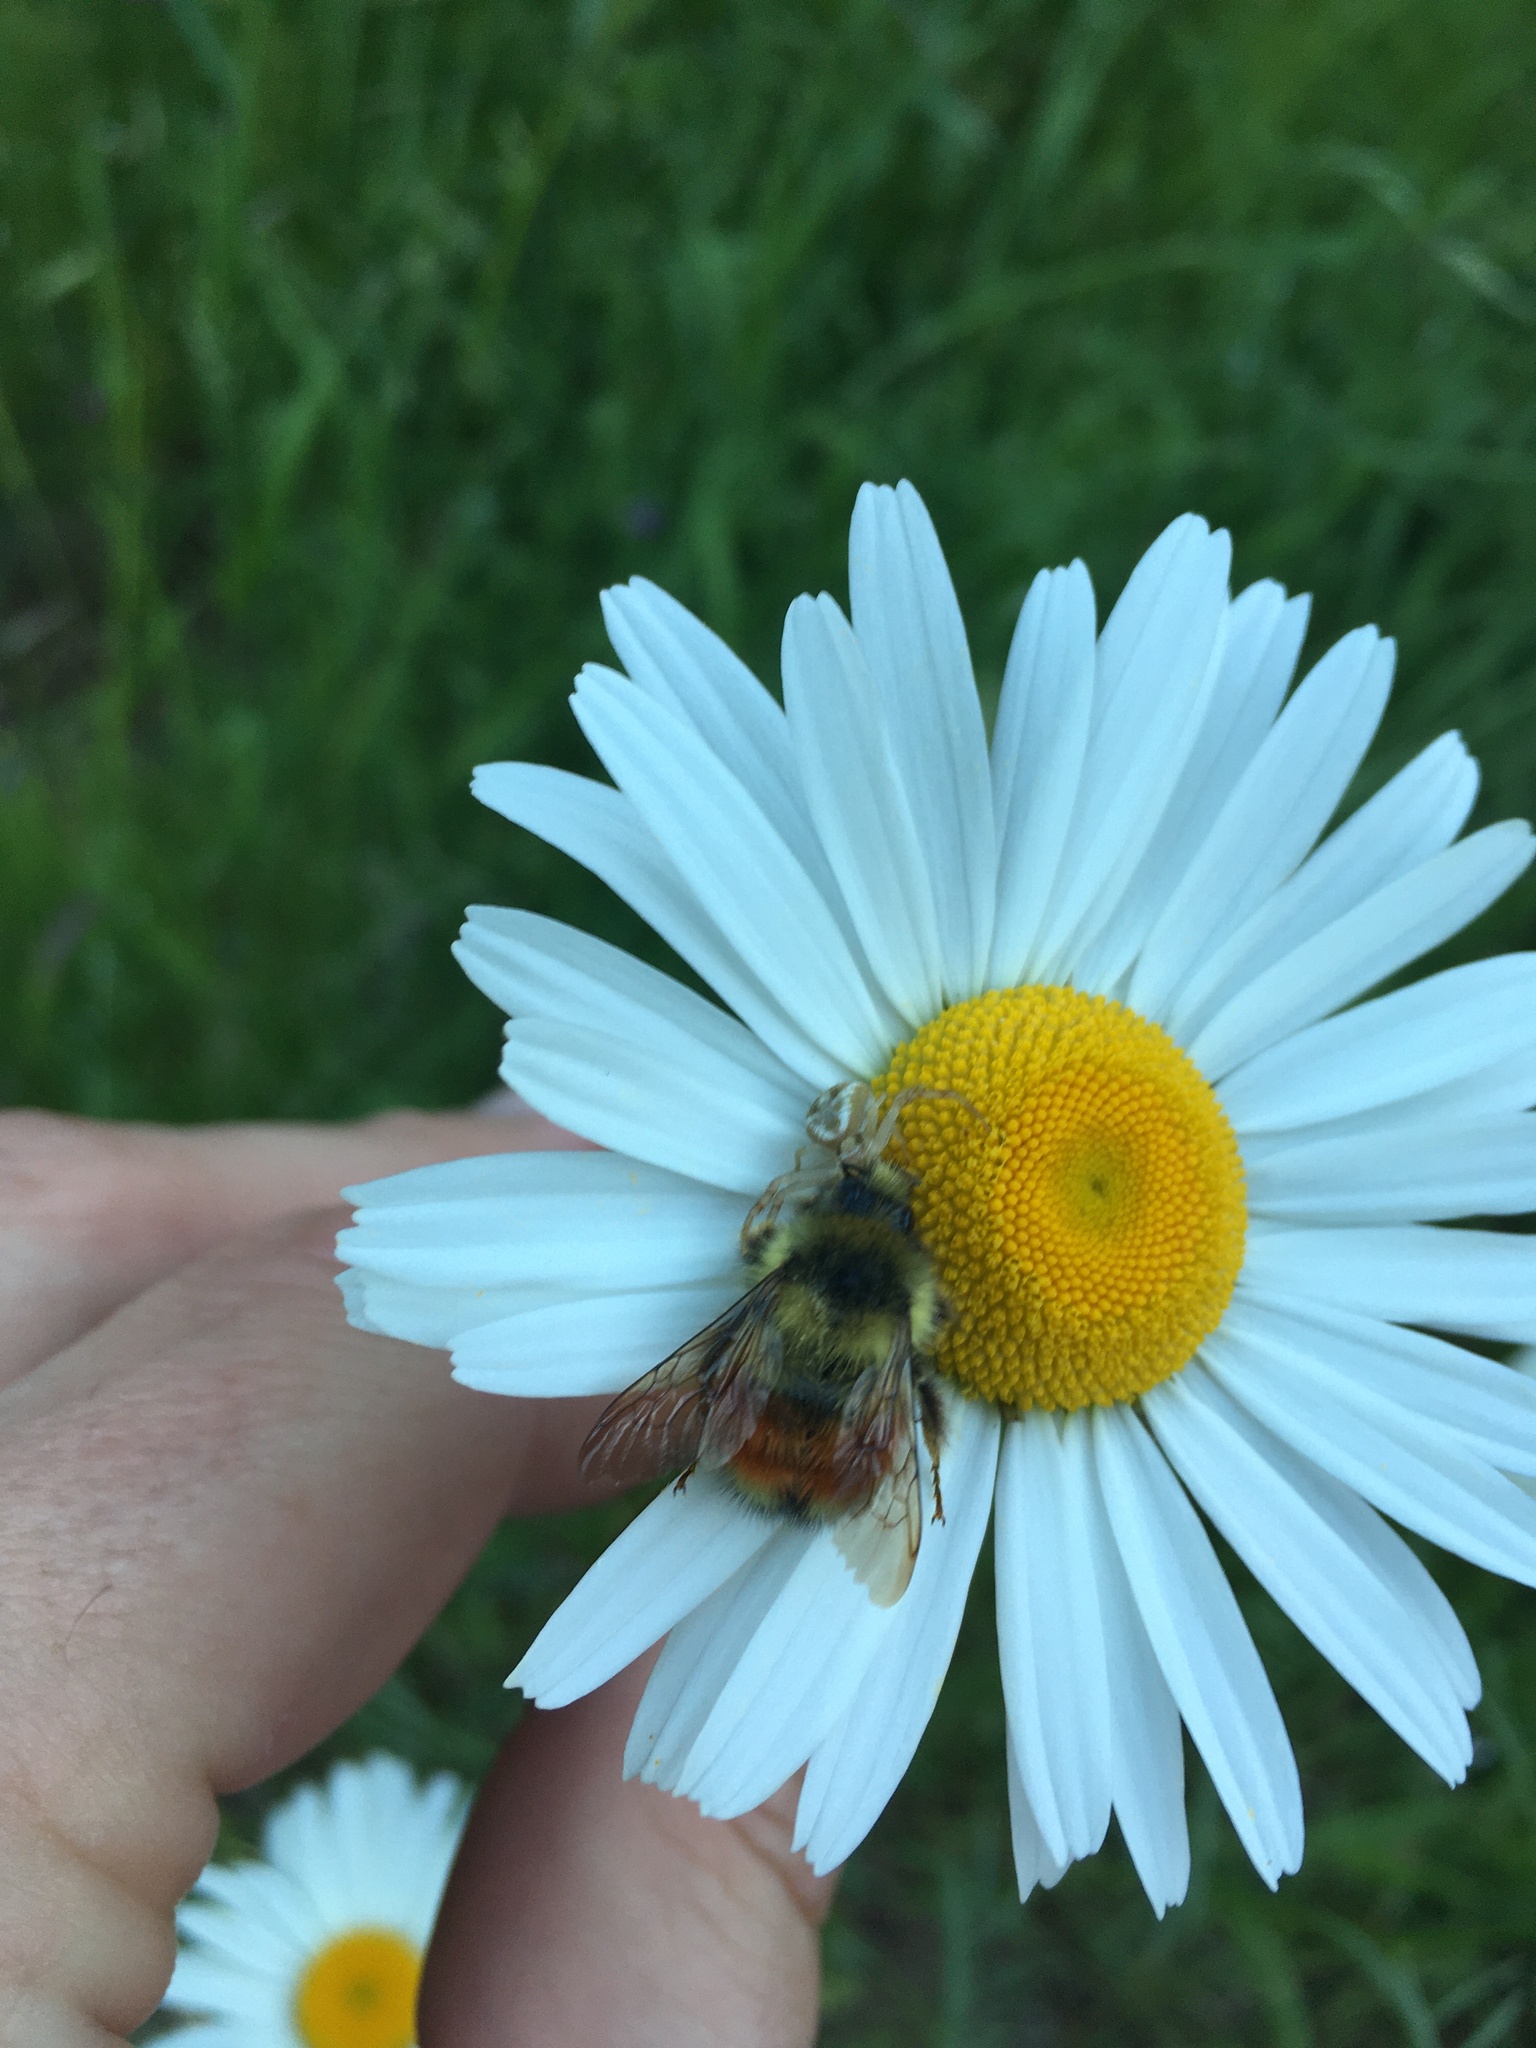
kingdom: Animalia
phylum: Arthropoda
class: Insecta
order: Hymenoptera
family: Apidae
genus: Bombus
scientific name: Bombus melanopygus
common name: Black tail bumble bee
